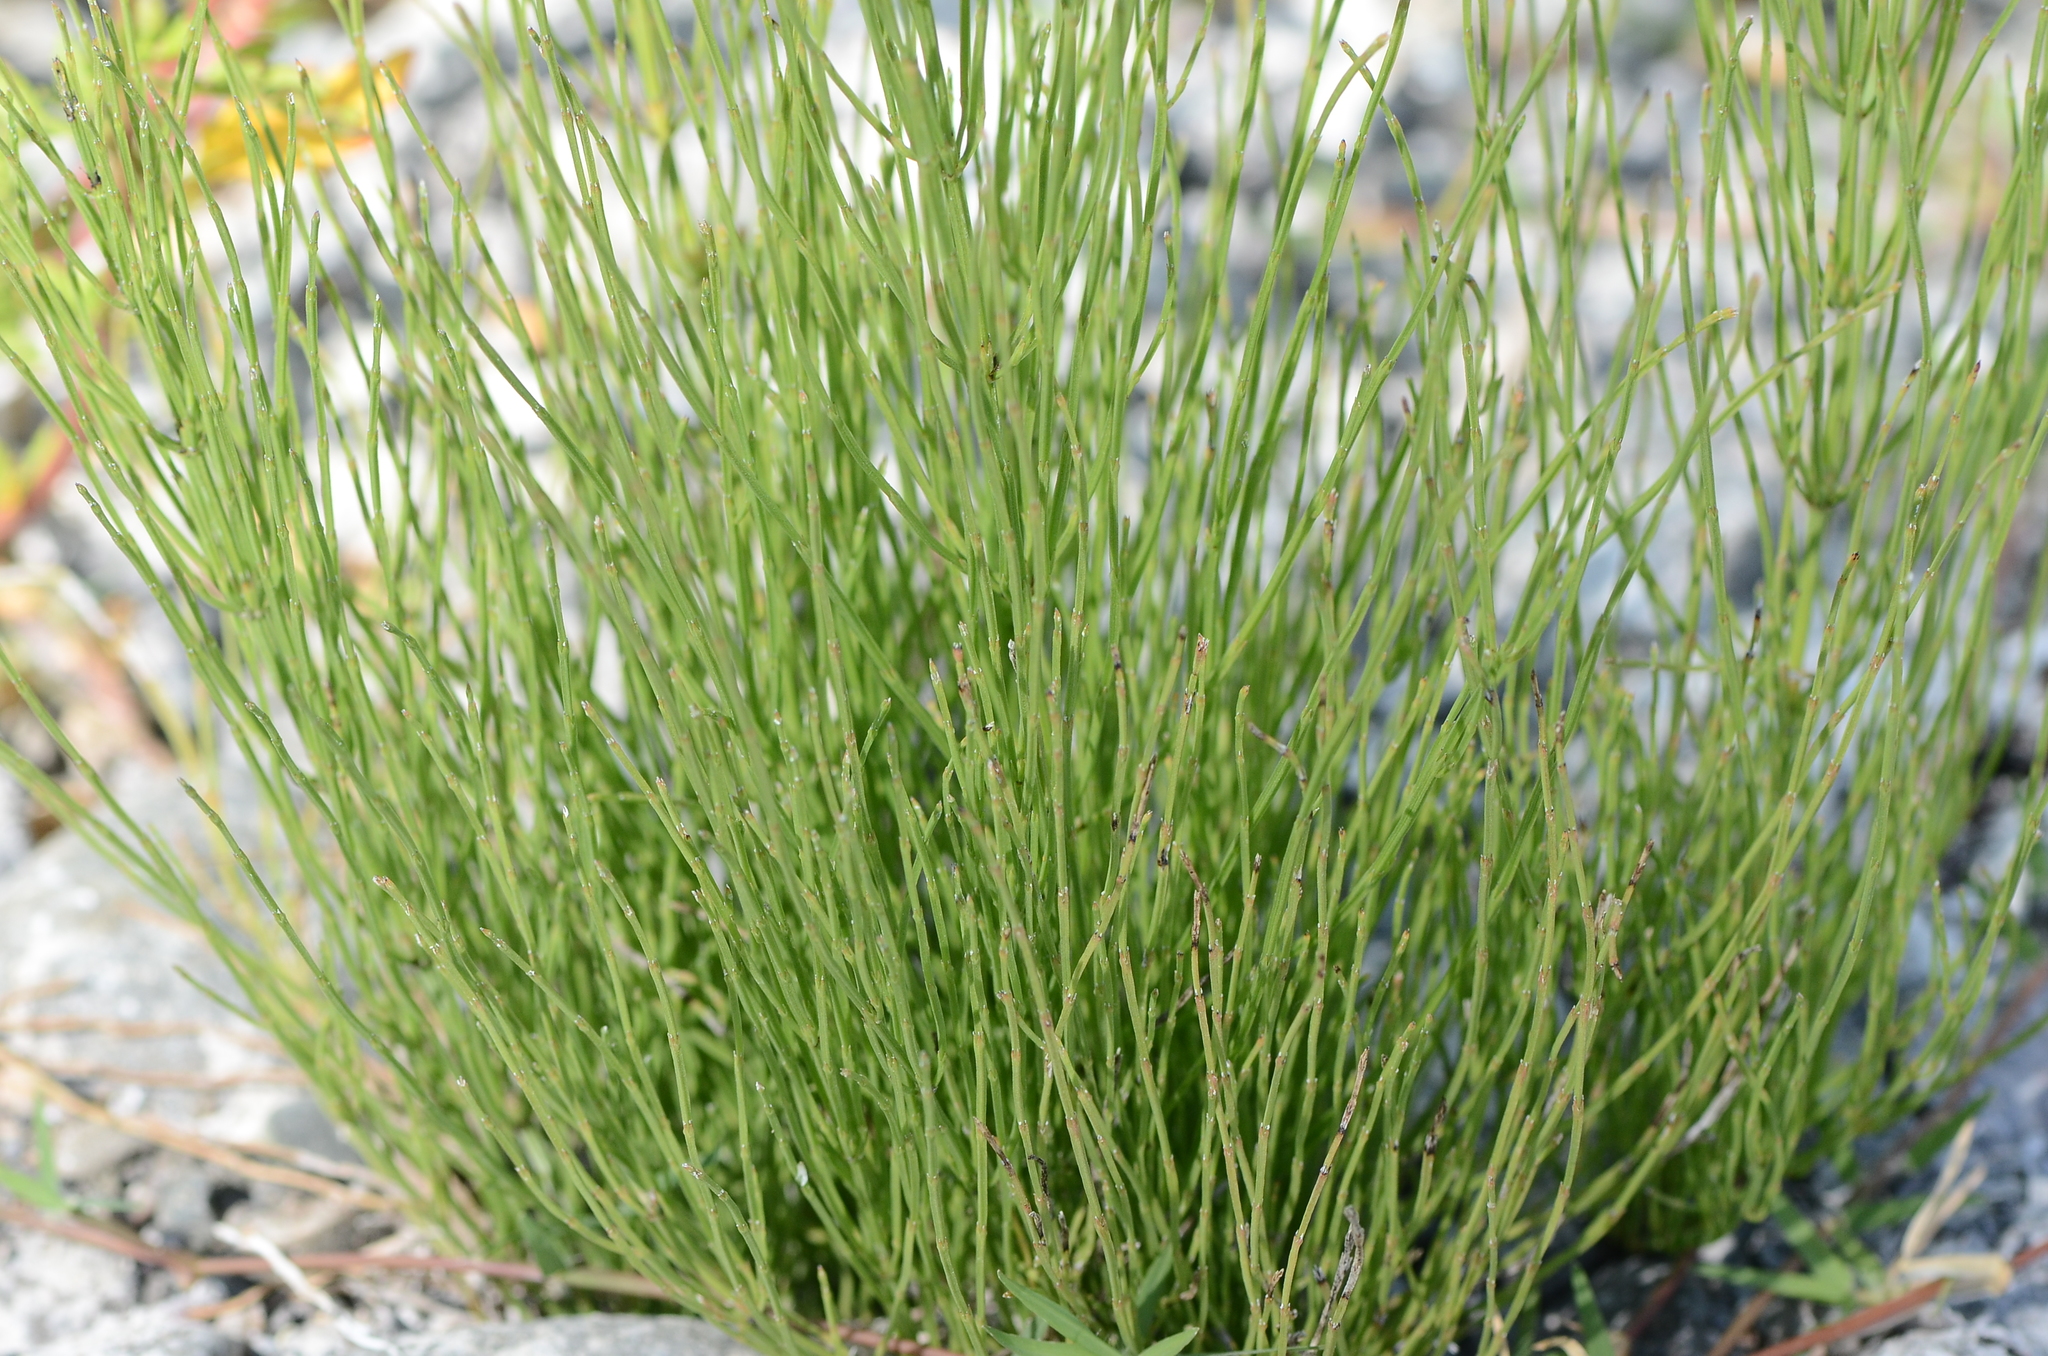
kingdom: Plantae
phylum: Tracheophyta
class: Polypodiopsida
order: Equisetales
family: Equisetaceae
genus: Equisetum
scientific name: Equisetum arvense
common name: Field horsetail
